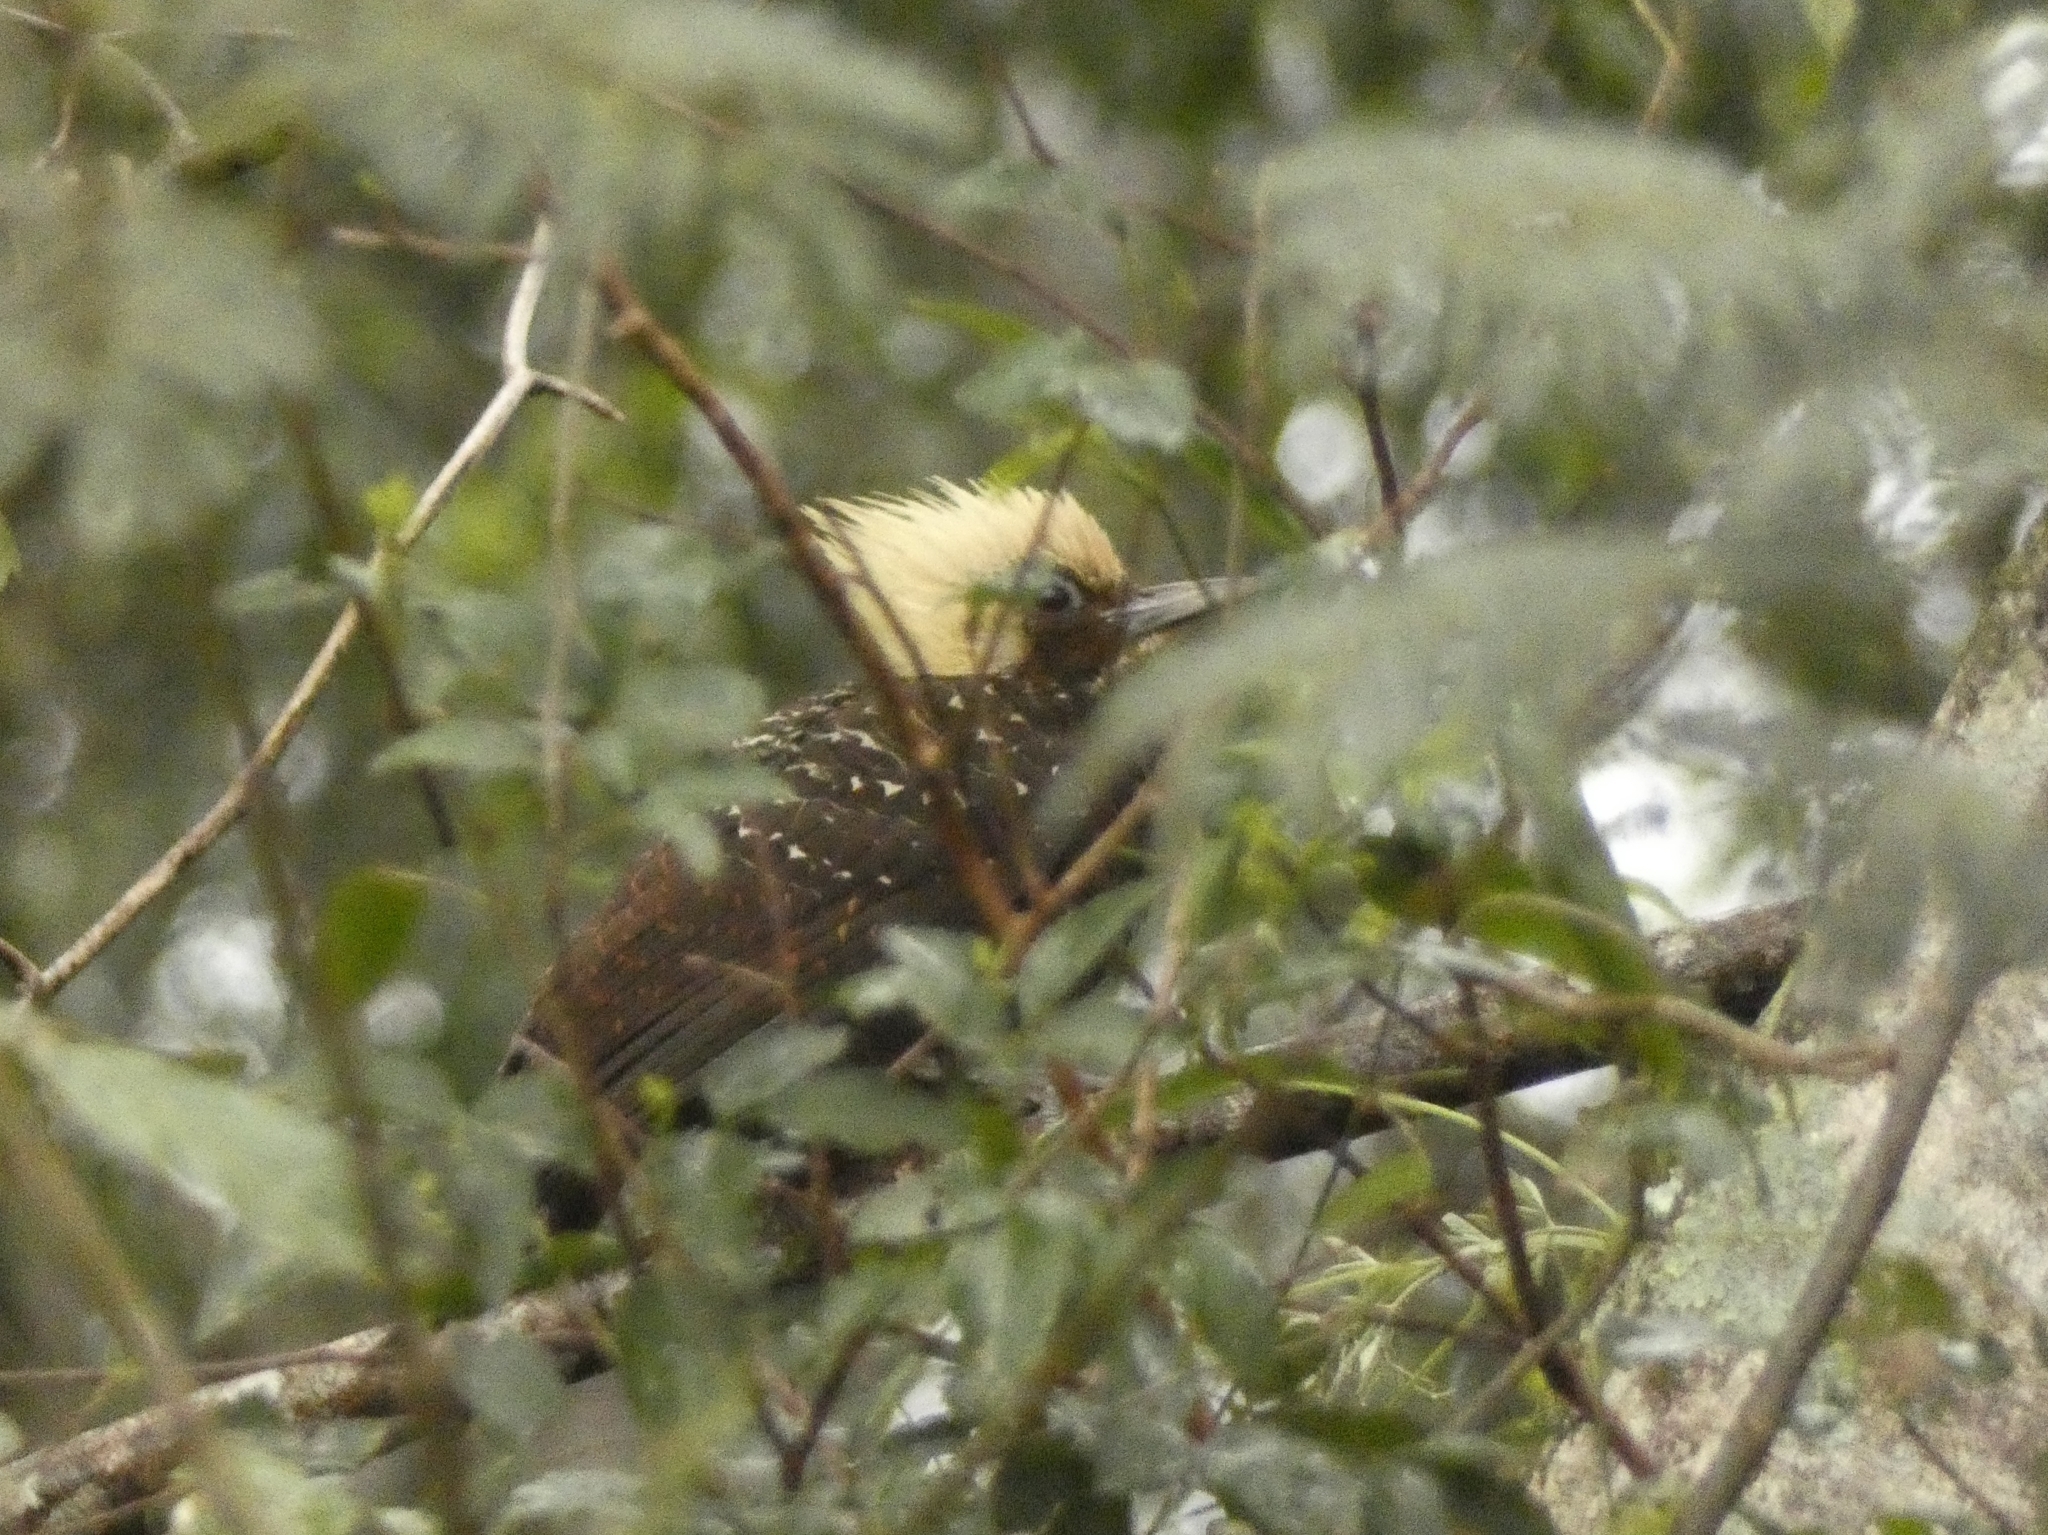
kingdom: Animalia
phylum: Chordata
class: Aves
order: Piciformes
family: Picidae
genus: Celeus
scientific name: Celeus lugubris
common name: Pale-crested woodpecker
